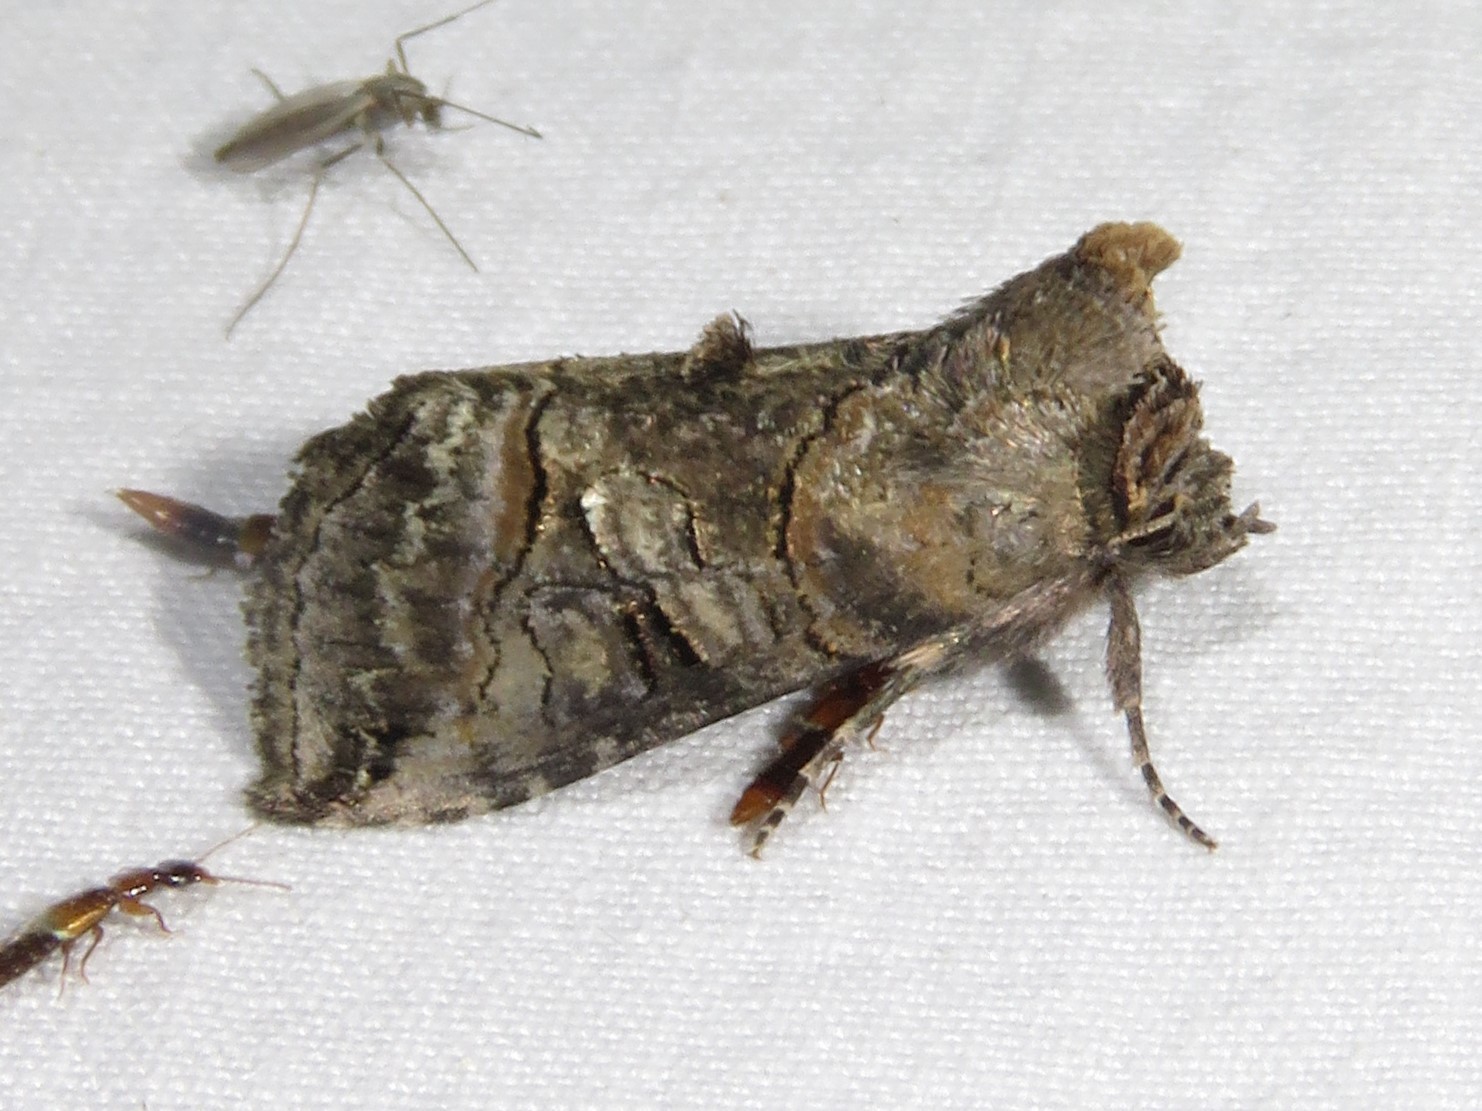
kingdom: Animalia
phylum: Arthropoda
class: Insecta
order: Lepidoptera
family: Noctuidae
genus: Abrostola
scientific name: Abrostola urentis
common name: Spectacled nettle moth
